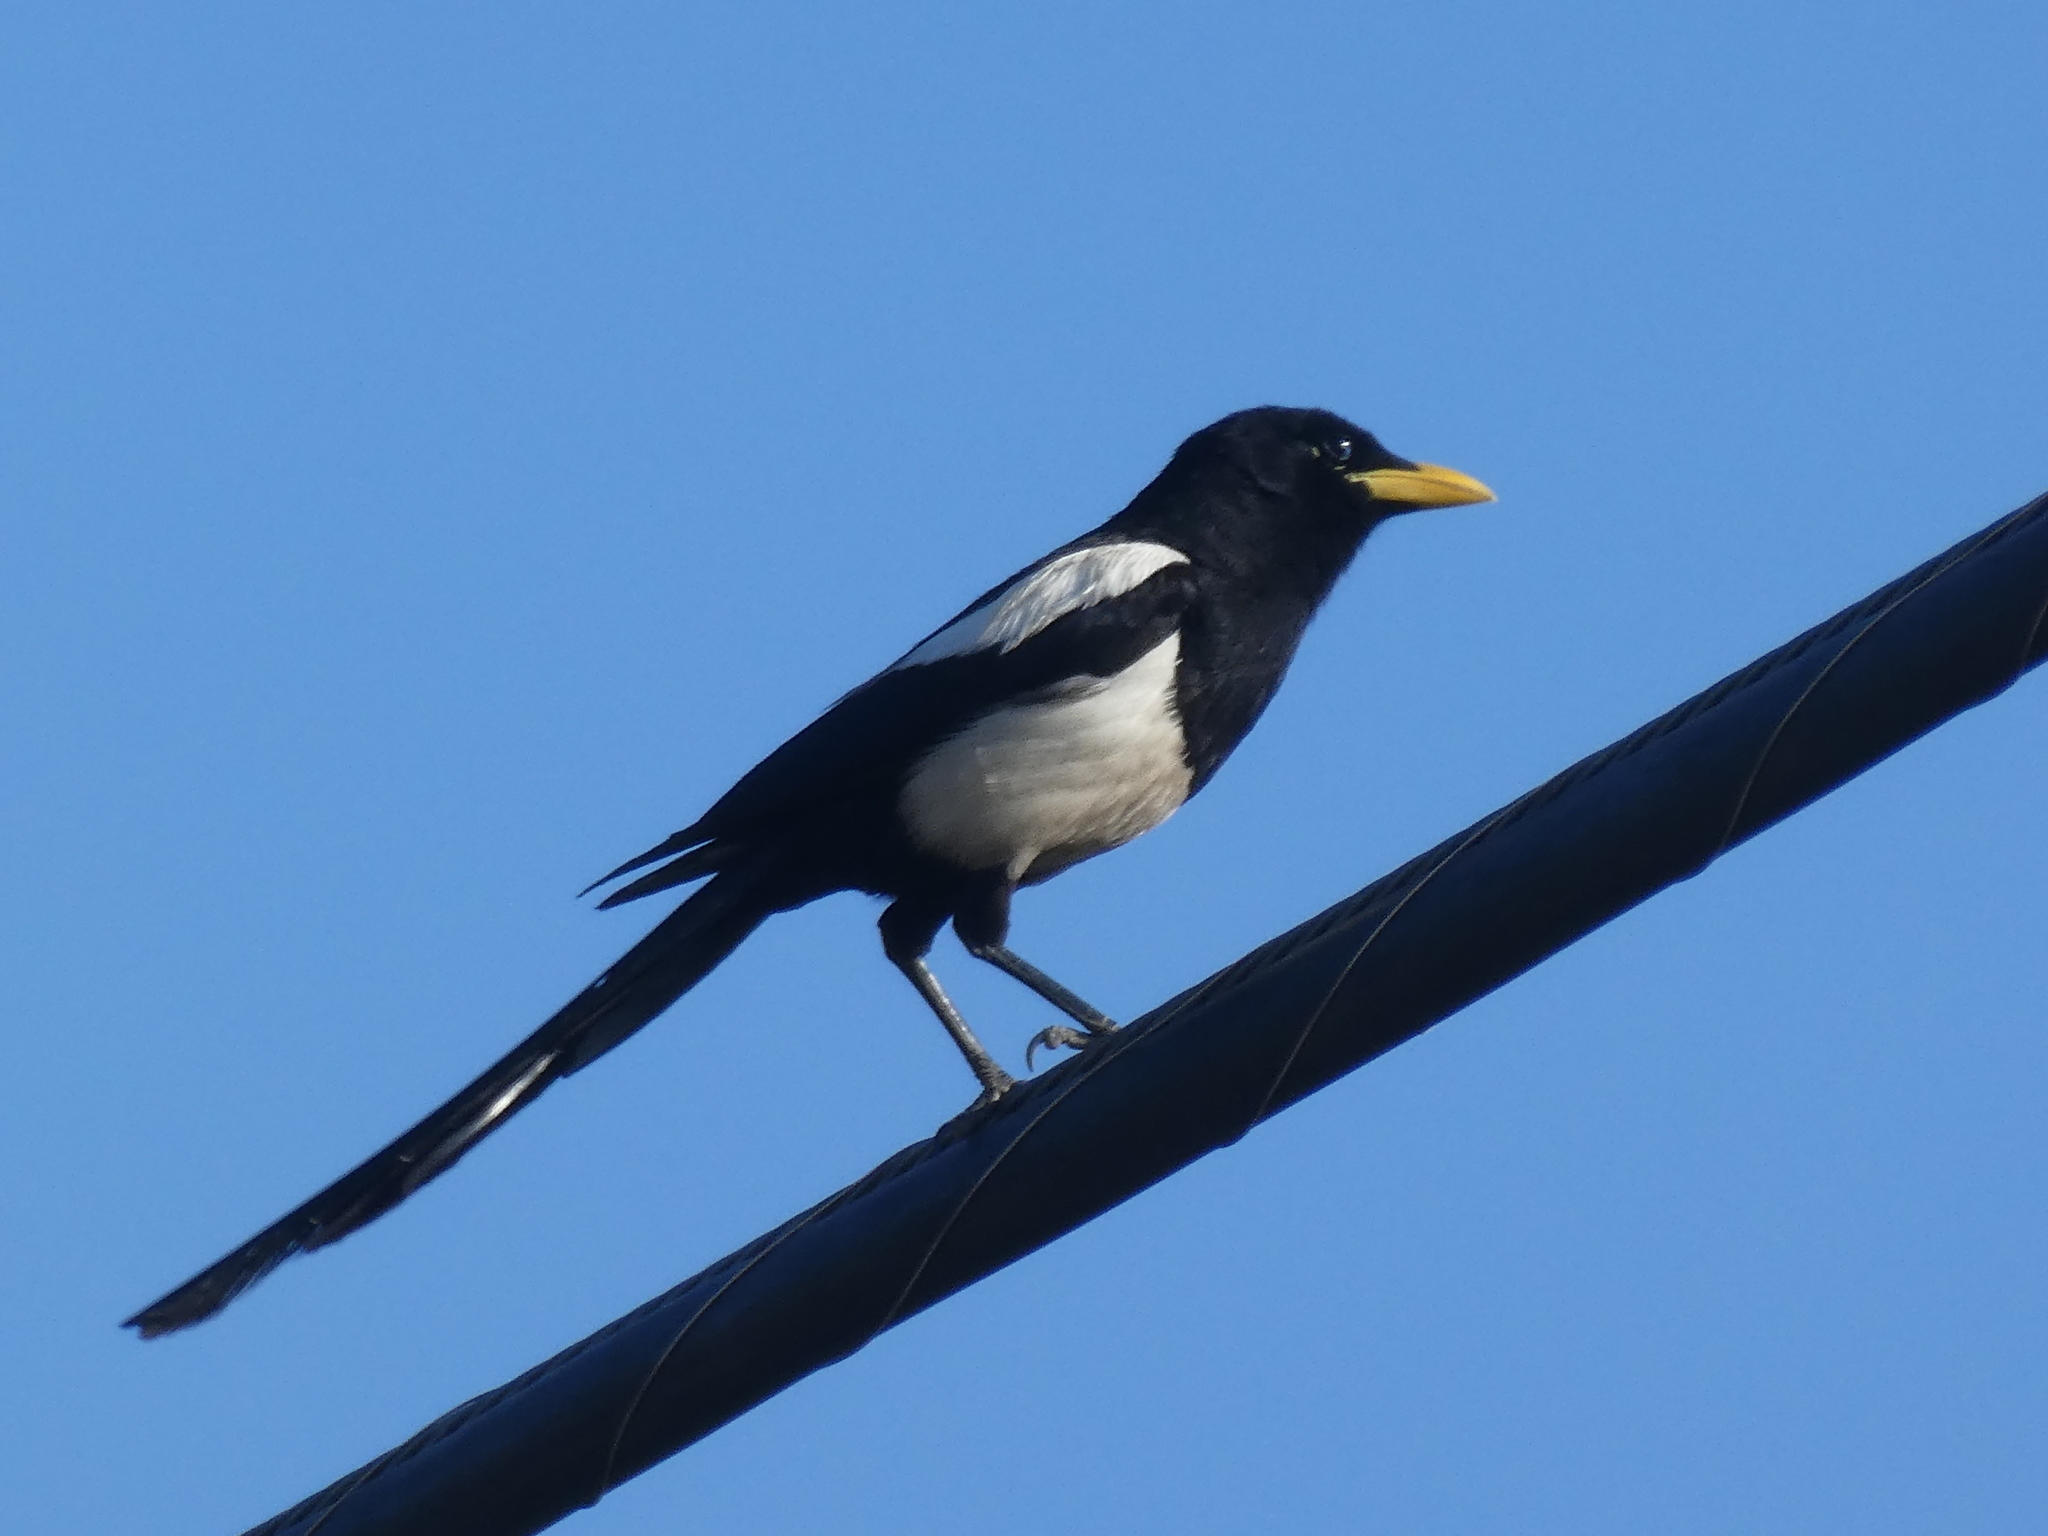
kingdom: Animalia
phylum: Chordata
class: Aves
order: Passeriformes
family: Corvidae
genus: Pica
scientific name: Pica nuttalli
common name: Yellow-billed magpie
